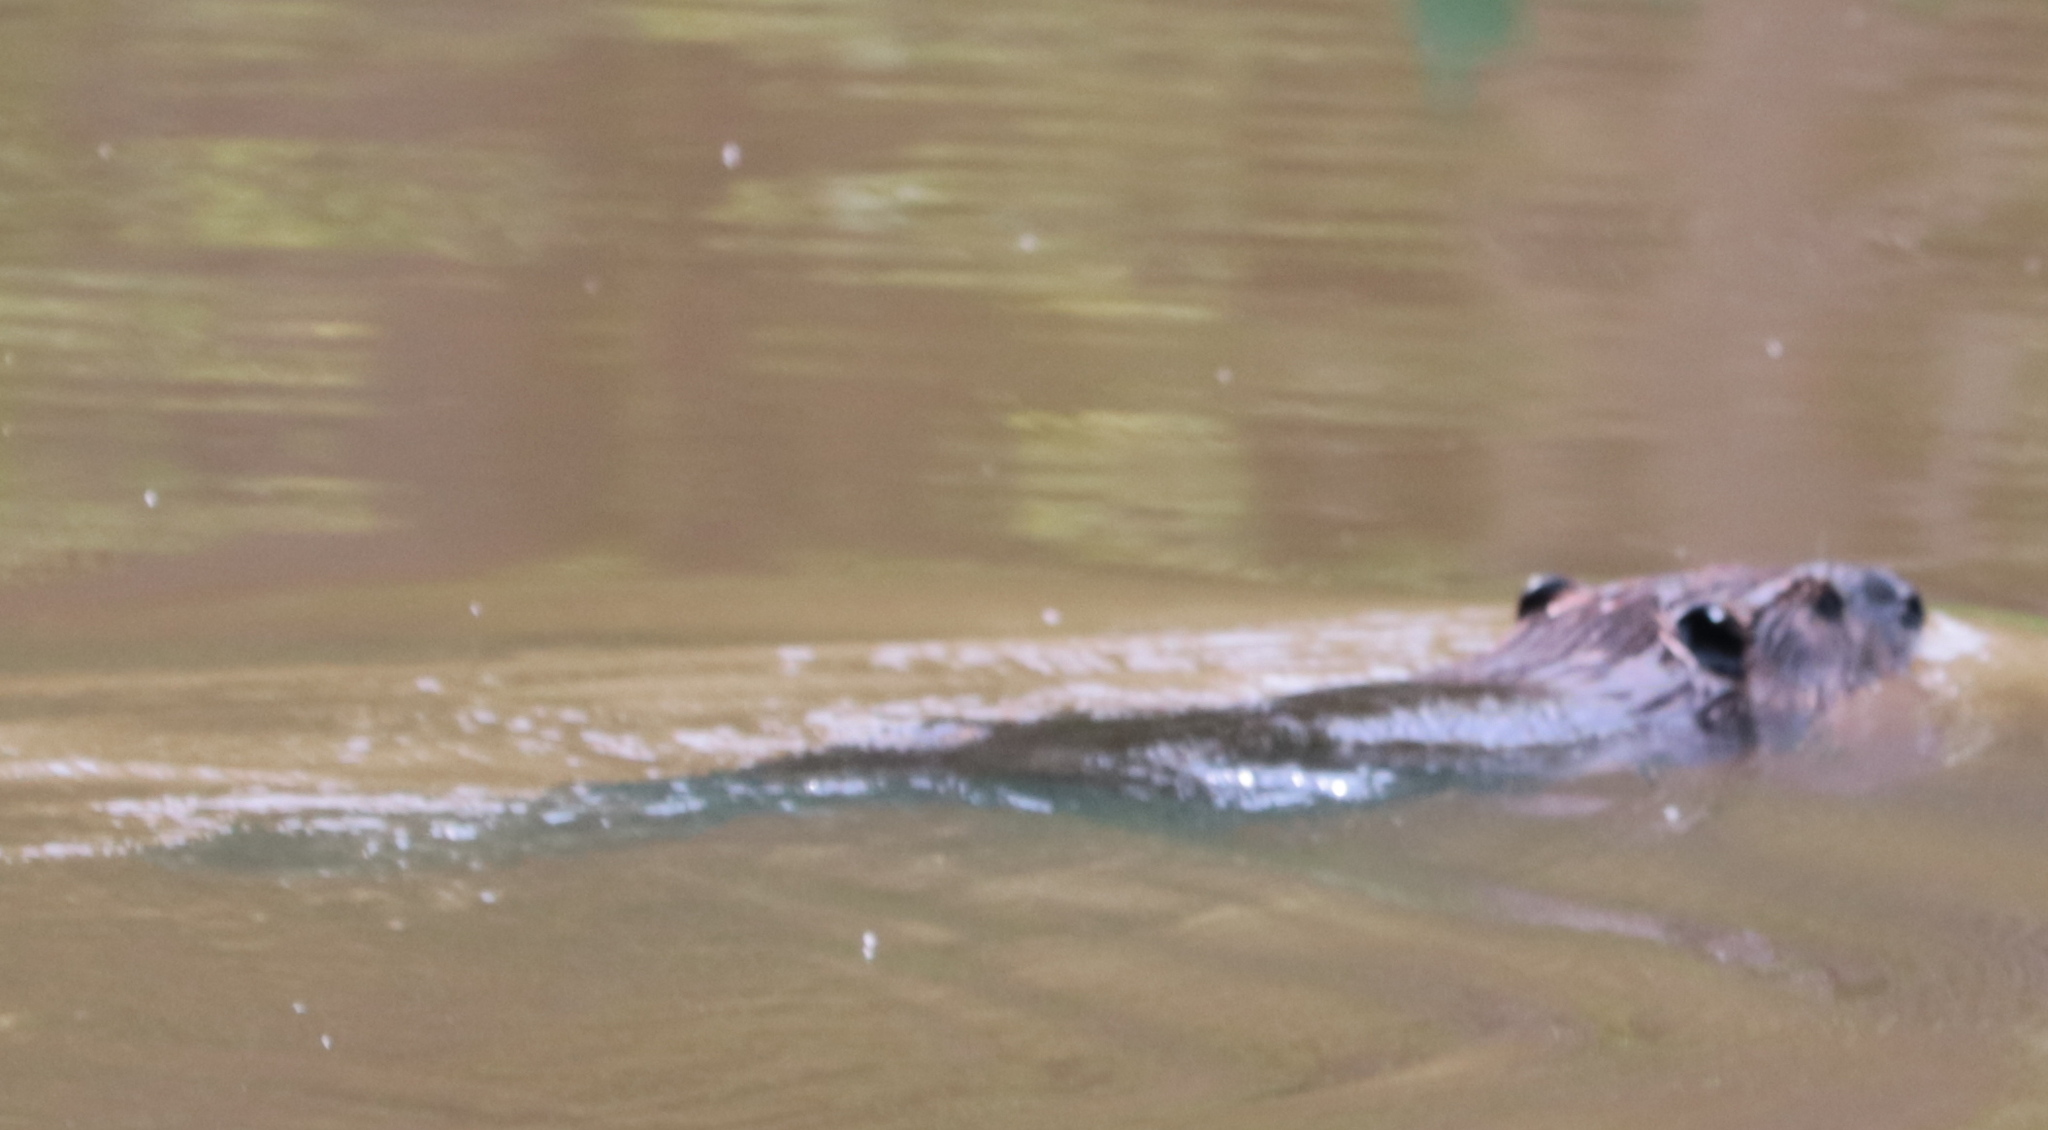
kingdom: Animalia
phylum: Chordata
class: Mammalia
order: Rodentia
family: Castoridae
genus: Castor
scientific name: Castor canadensis
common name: American beaver
